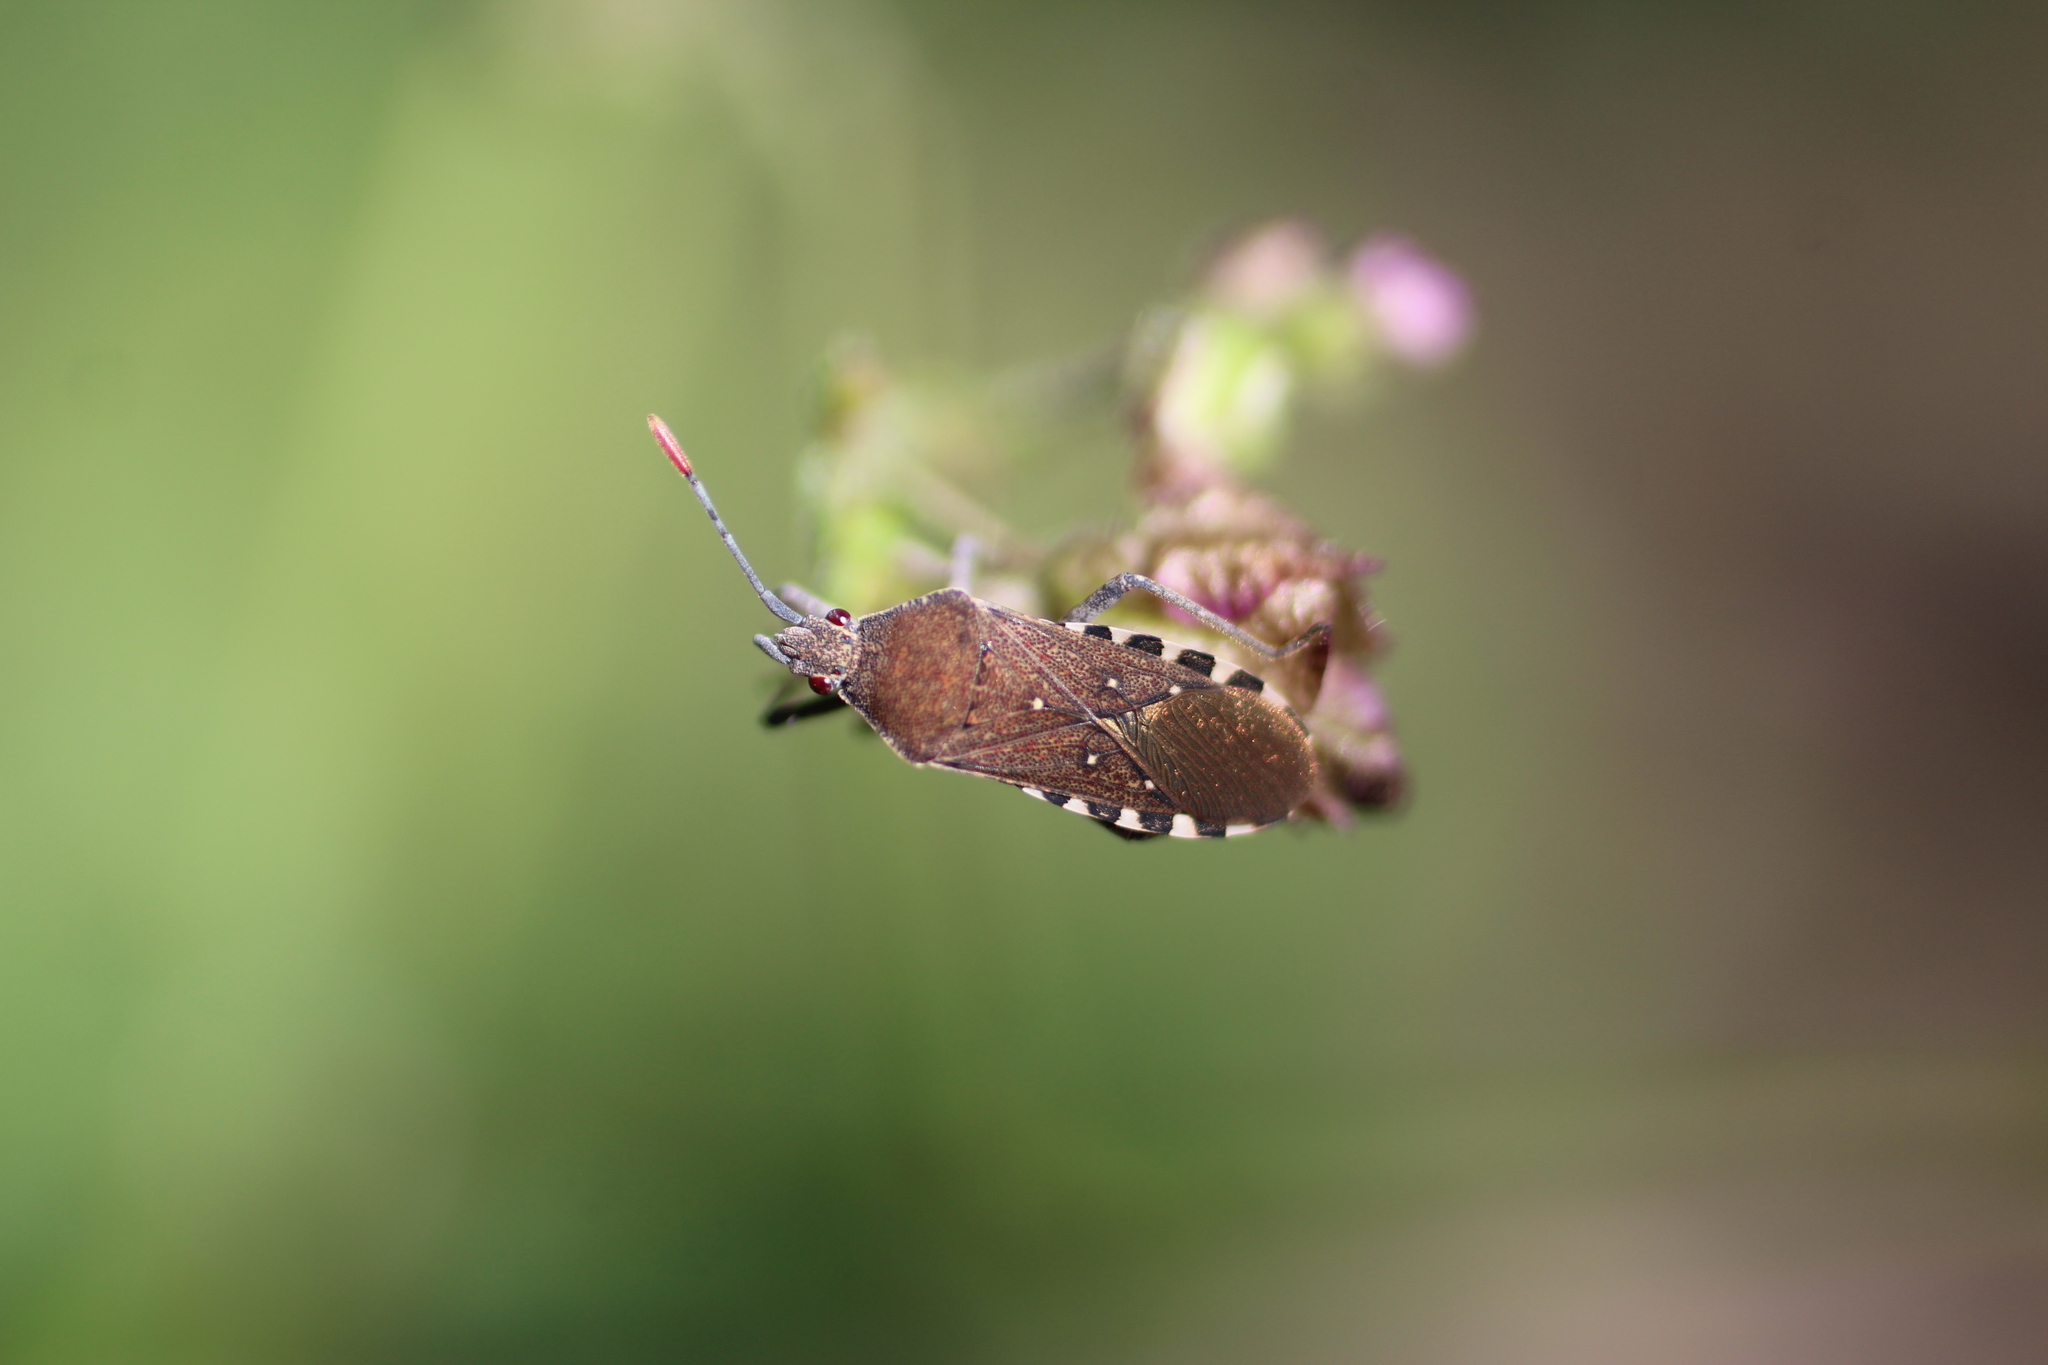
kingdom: Animalia
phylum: Arthropoda
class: Insecta
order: Hemiptera
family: Coreidae
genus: Catorhintha
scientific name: Catorhintha apicalis
